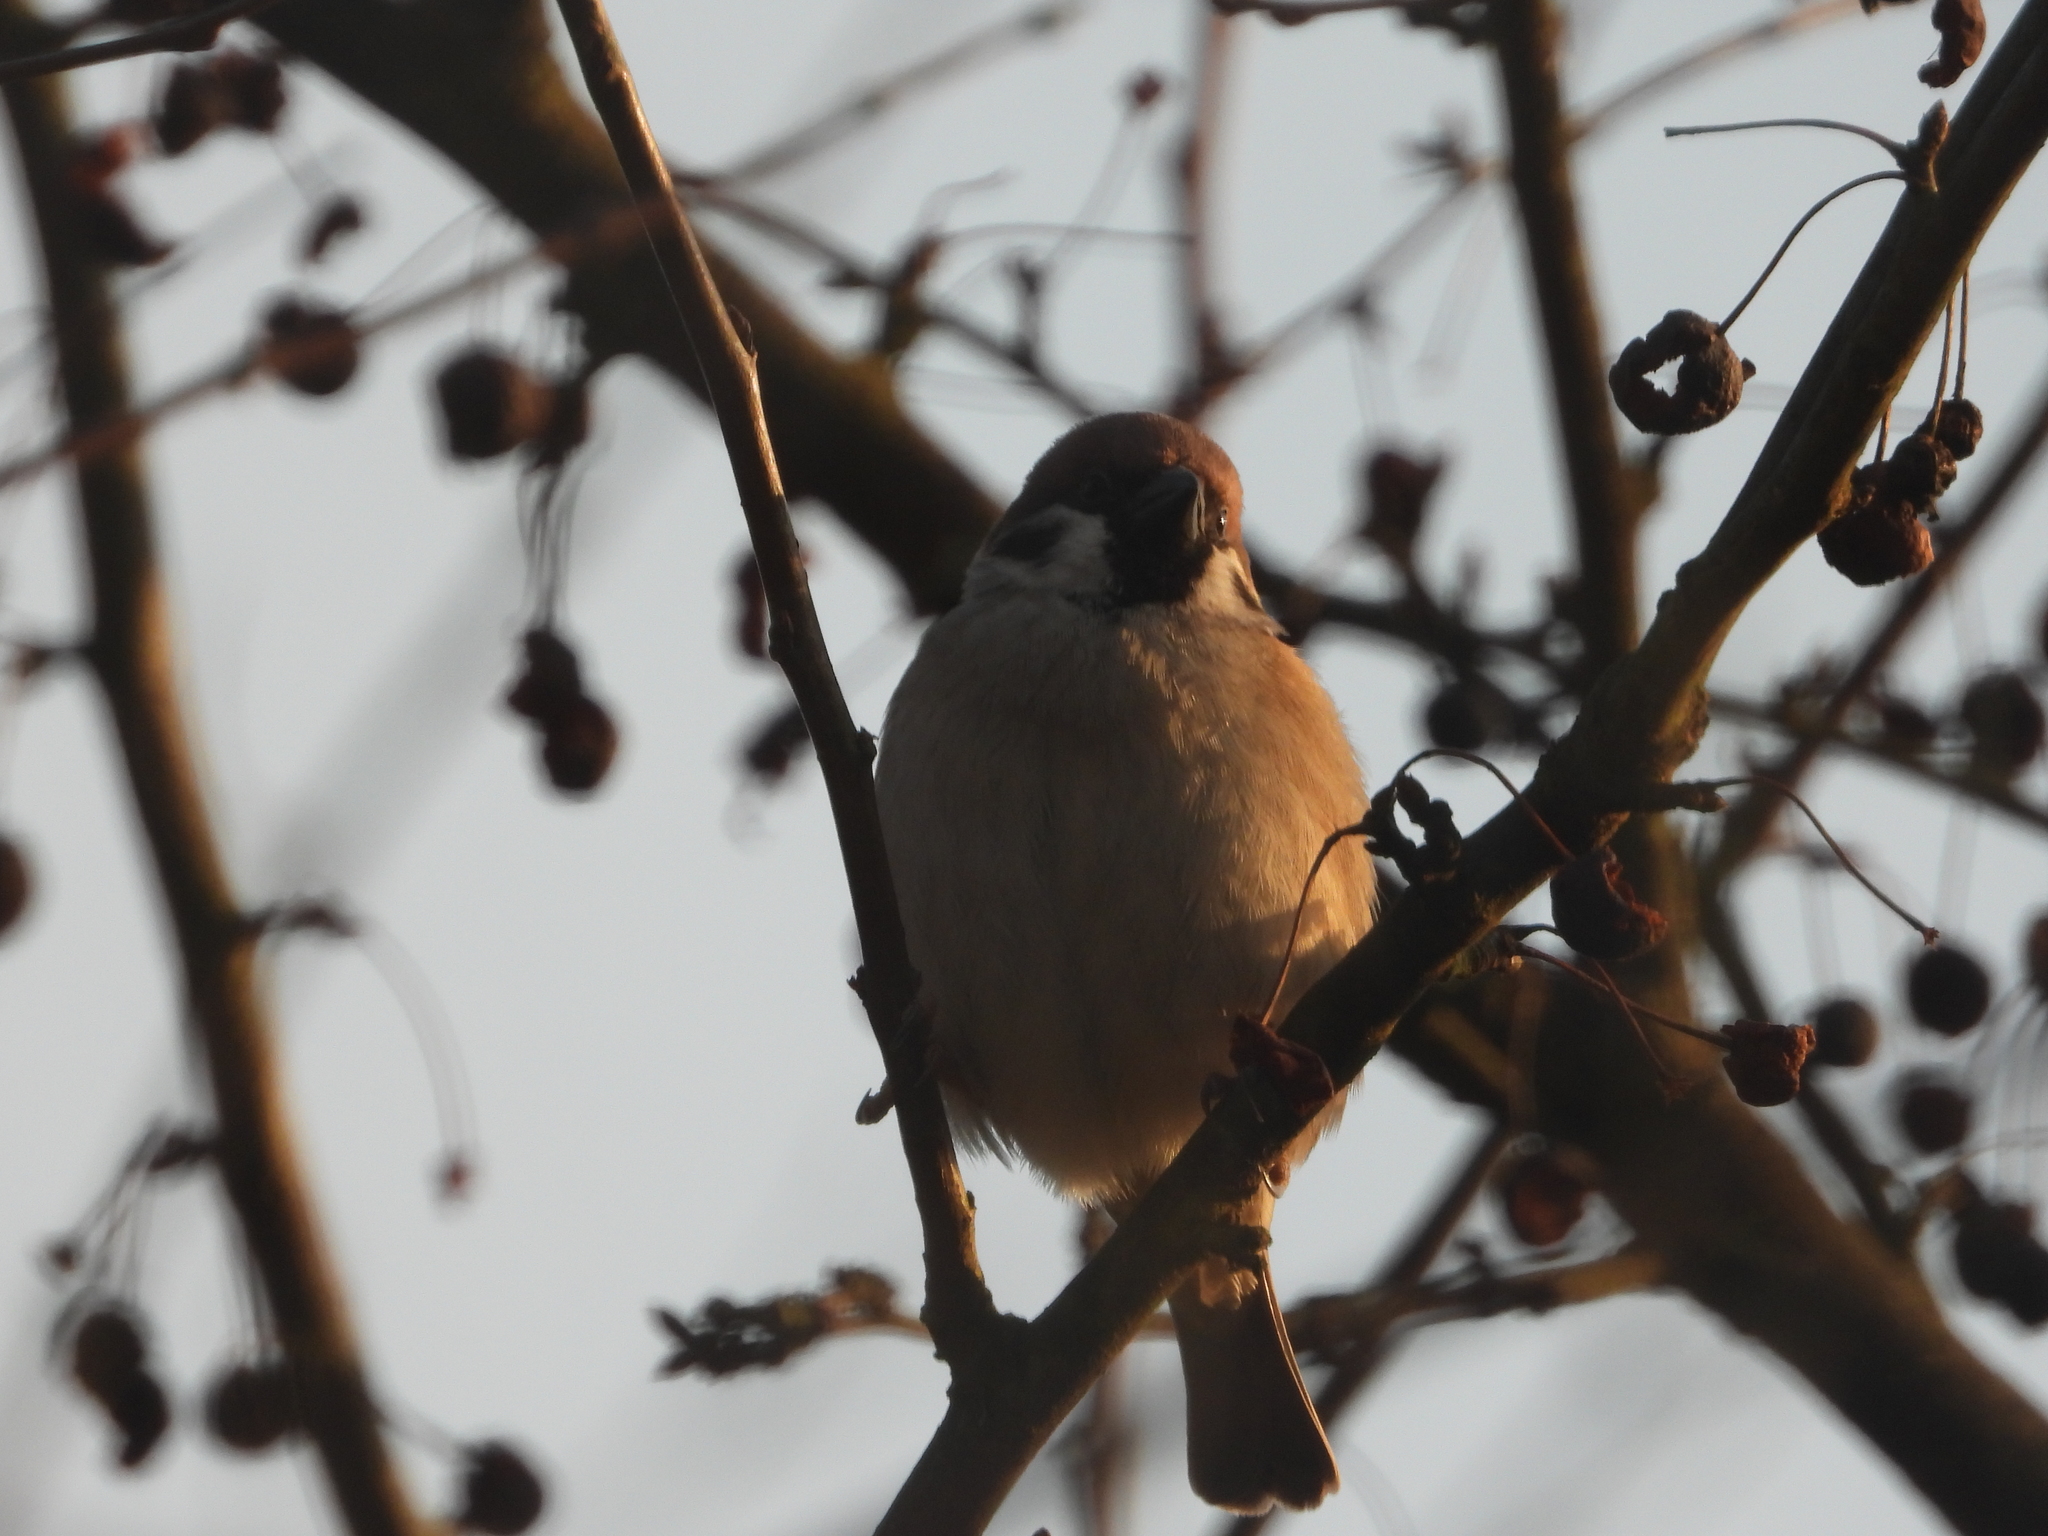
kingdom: Animalia
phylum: Chordata
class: Aves
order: Passeriformes
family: Passeridae
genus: Passer
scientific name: Passer montanus
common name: Eurasian tree sparrow
